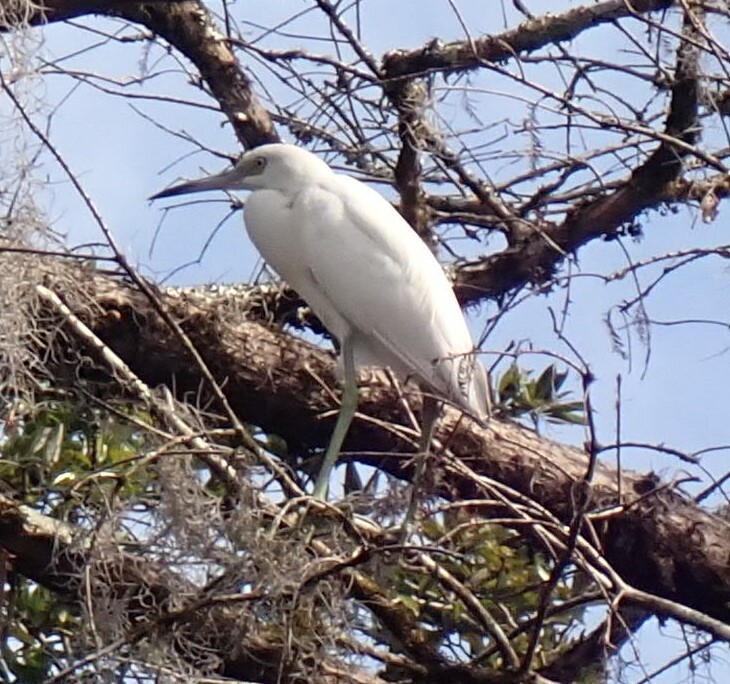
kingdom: Animalia
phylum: Chordata
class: Aves
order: Pelecaniformes
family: Ardeidae
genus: Ardea
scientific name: Ardea alba
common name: Great egret
